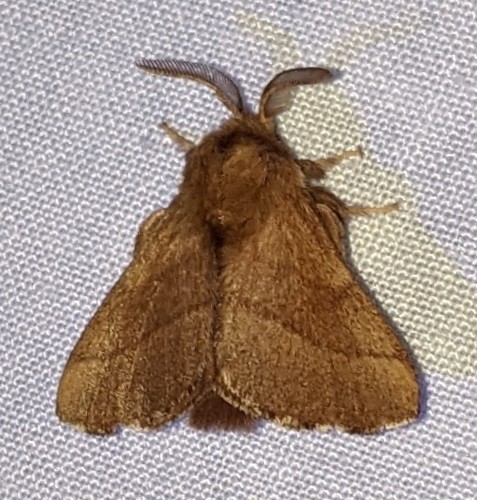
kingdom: Animalia
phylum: Arthropoda
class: Insecta
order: Lepidoptera
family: Lasiocampidae
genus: Malacosoma
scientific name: Malacosoma disstria
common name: Forest tent caterpillar
